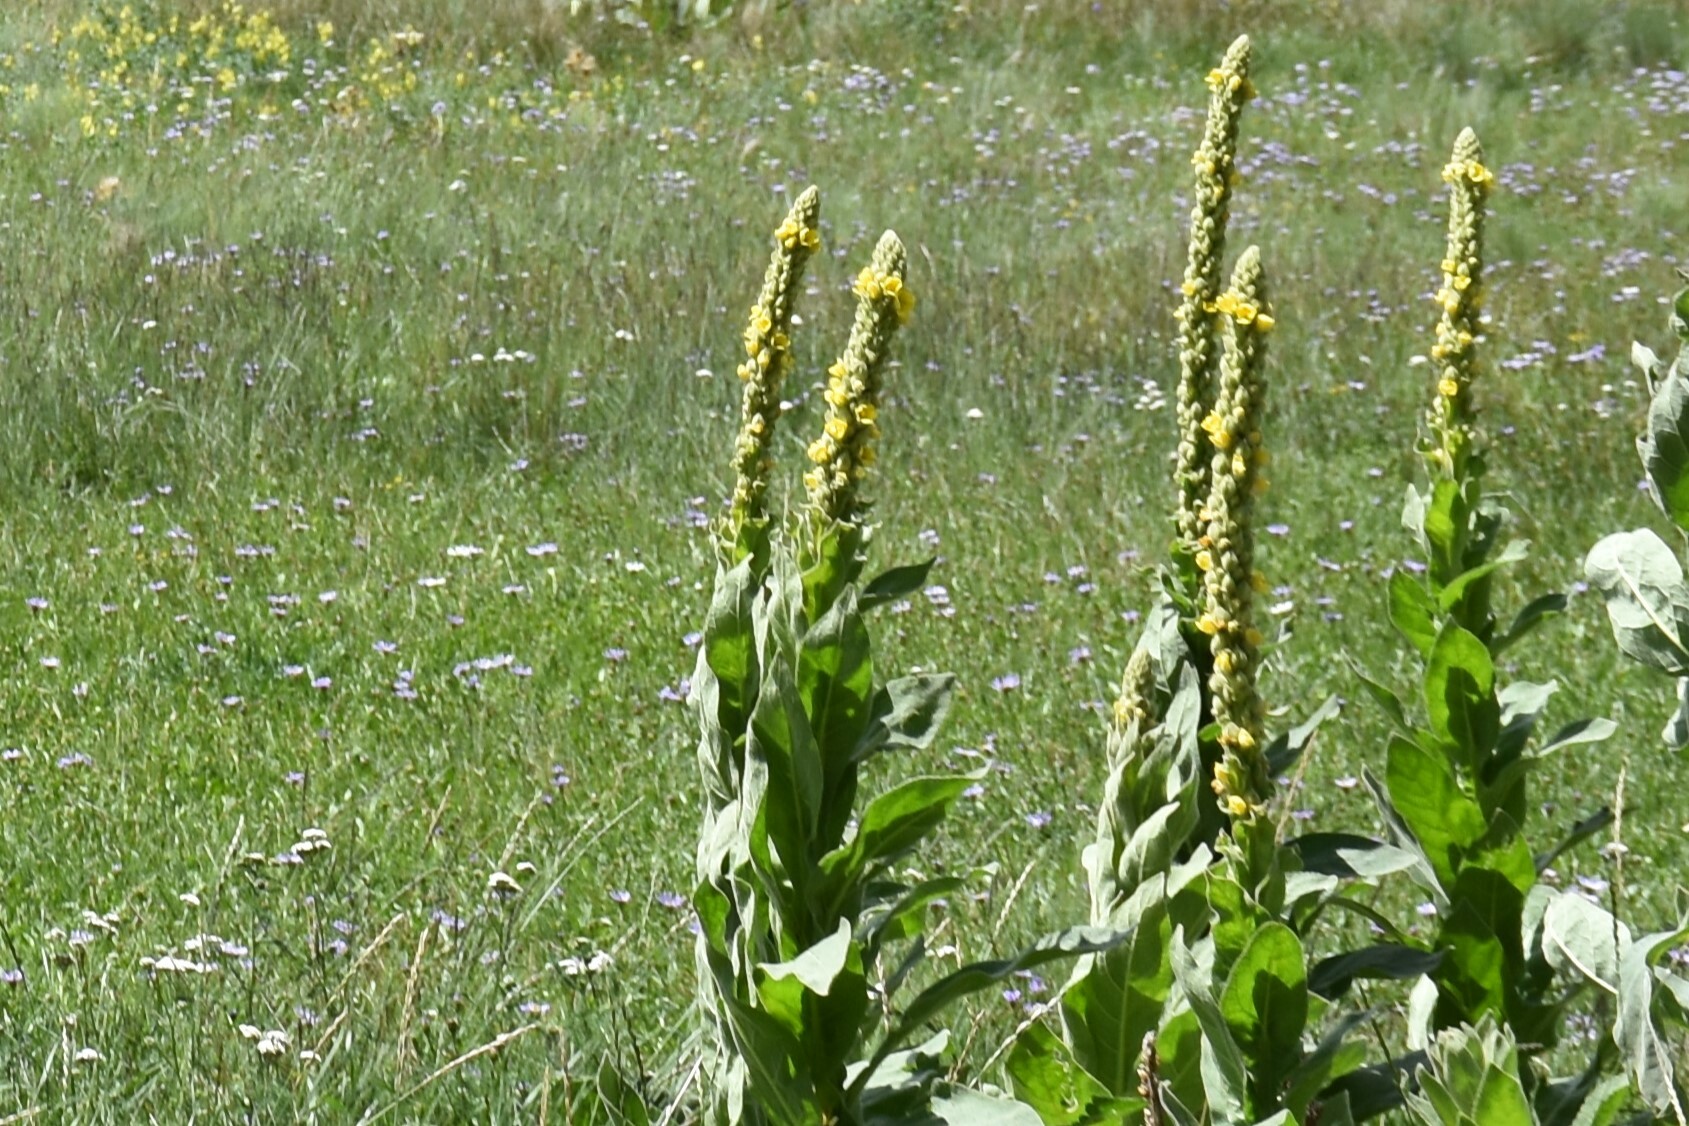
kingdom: Plantae
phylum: Tracheophyta
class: Magnoliopsida
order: Lamiales
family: Scrophulariaceae
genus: Verbascum
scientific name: Verbascum thapsus
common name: Common mullein
